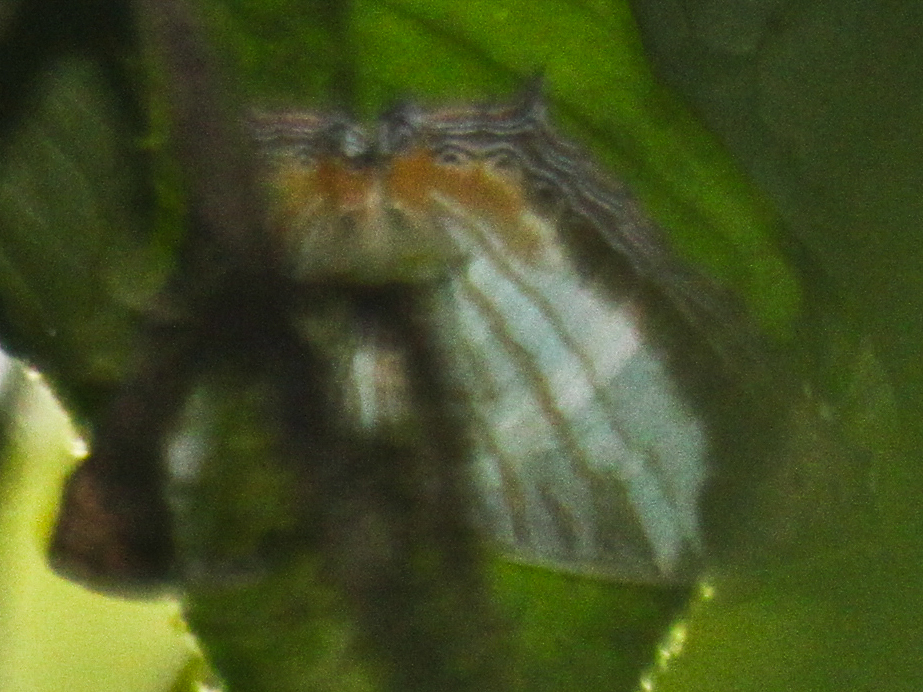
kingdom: Animalia
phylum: Arthropoda
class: Insecta
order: Lepidoptera
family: Nymphalidae
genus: Cyrestis
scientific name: Cyrestis themire
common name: Little mapwing
